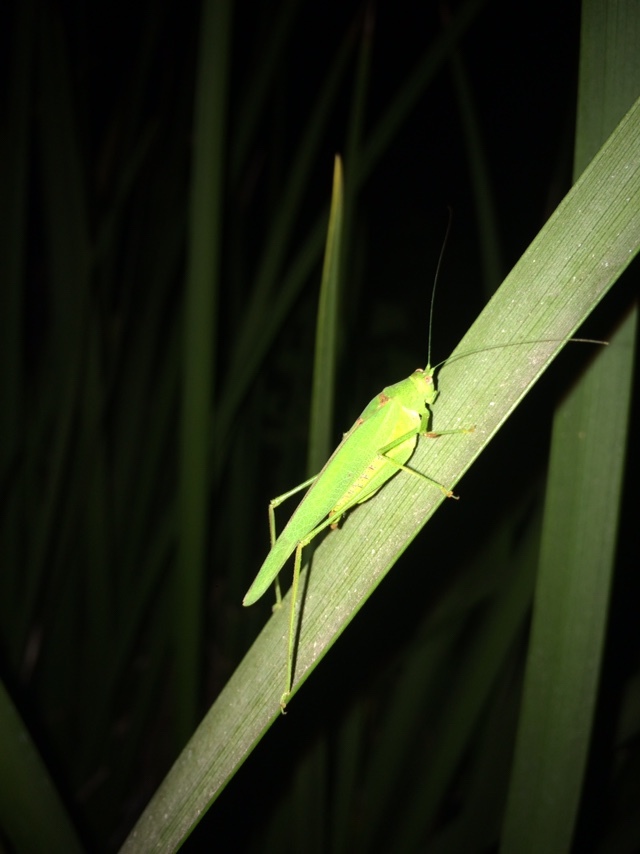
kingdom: Animalia
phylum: Arthropoda
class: Insecta
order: Orthoptera
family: Tettigoniidae
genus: Phaneroptera
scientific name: Phaneroptera nana
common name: Southern sickle bush-cricket
